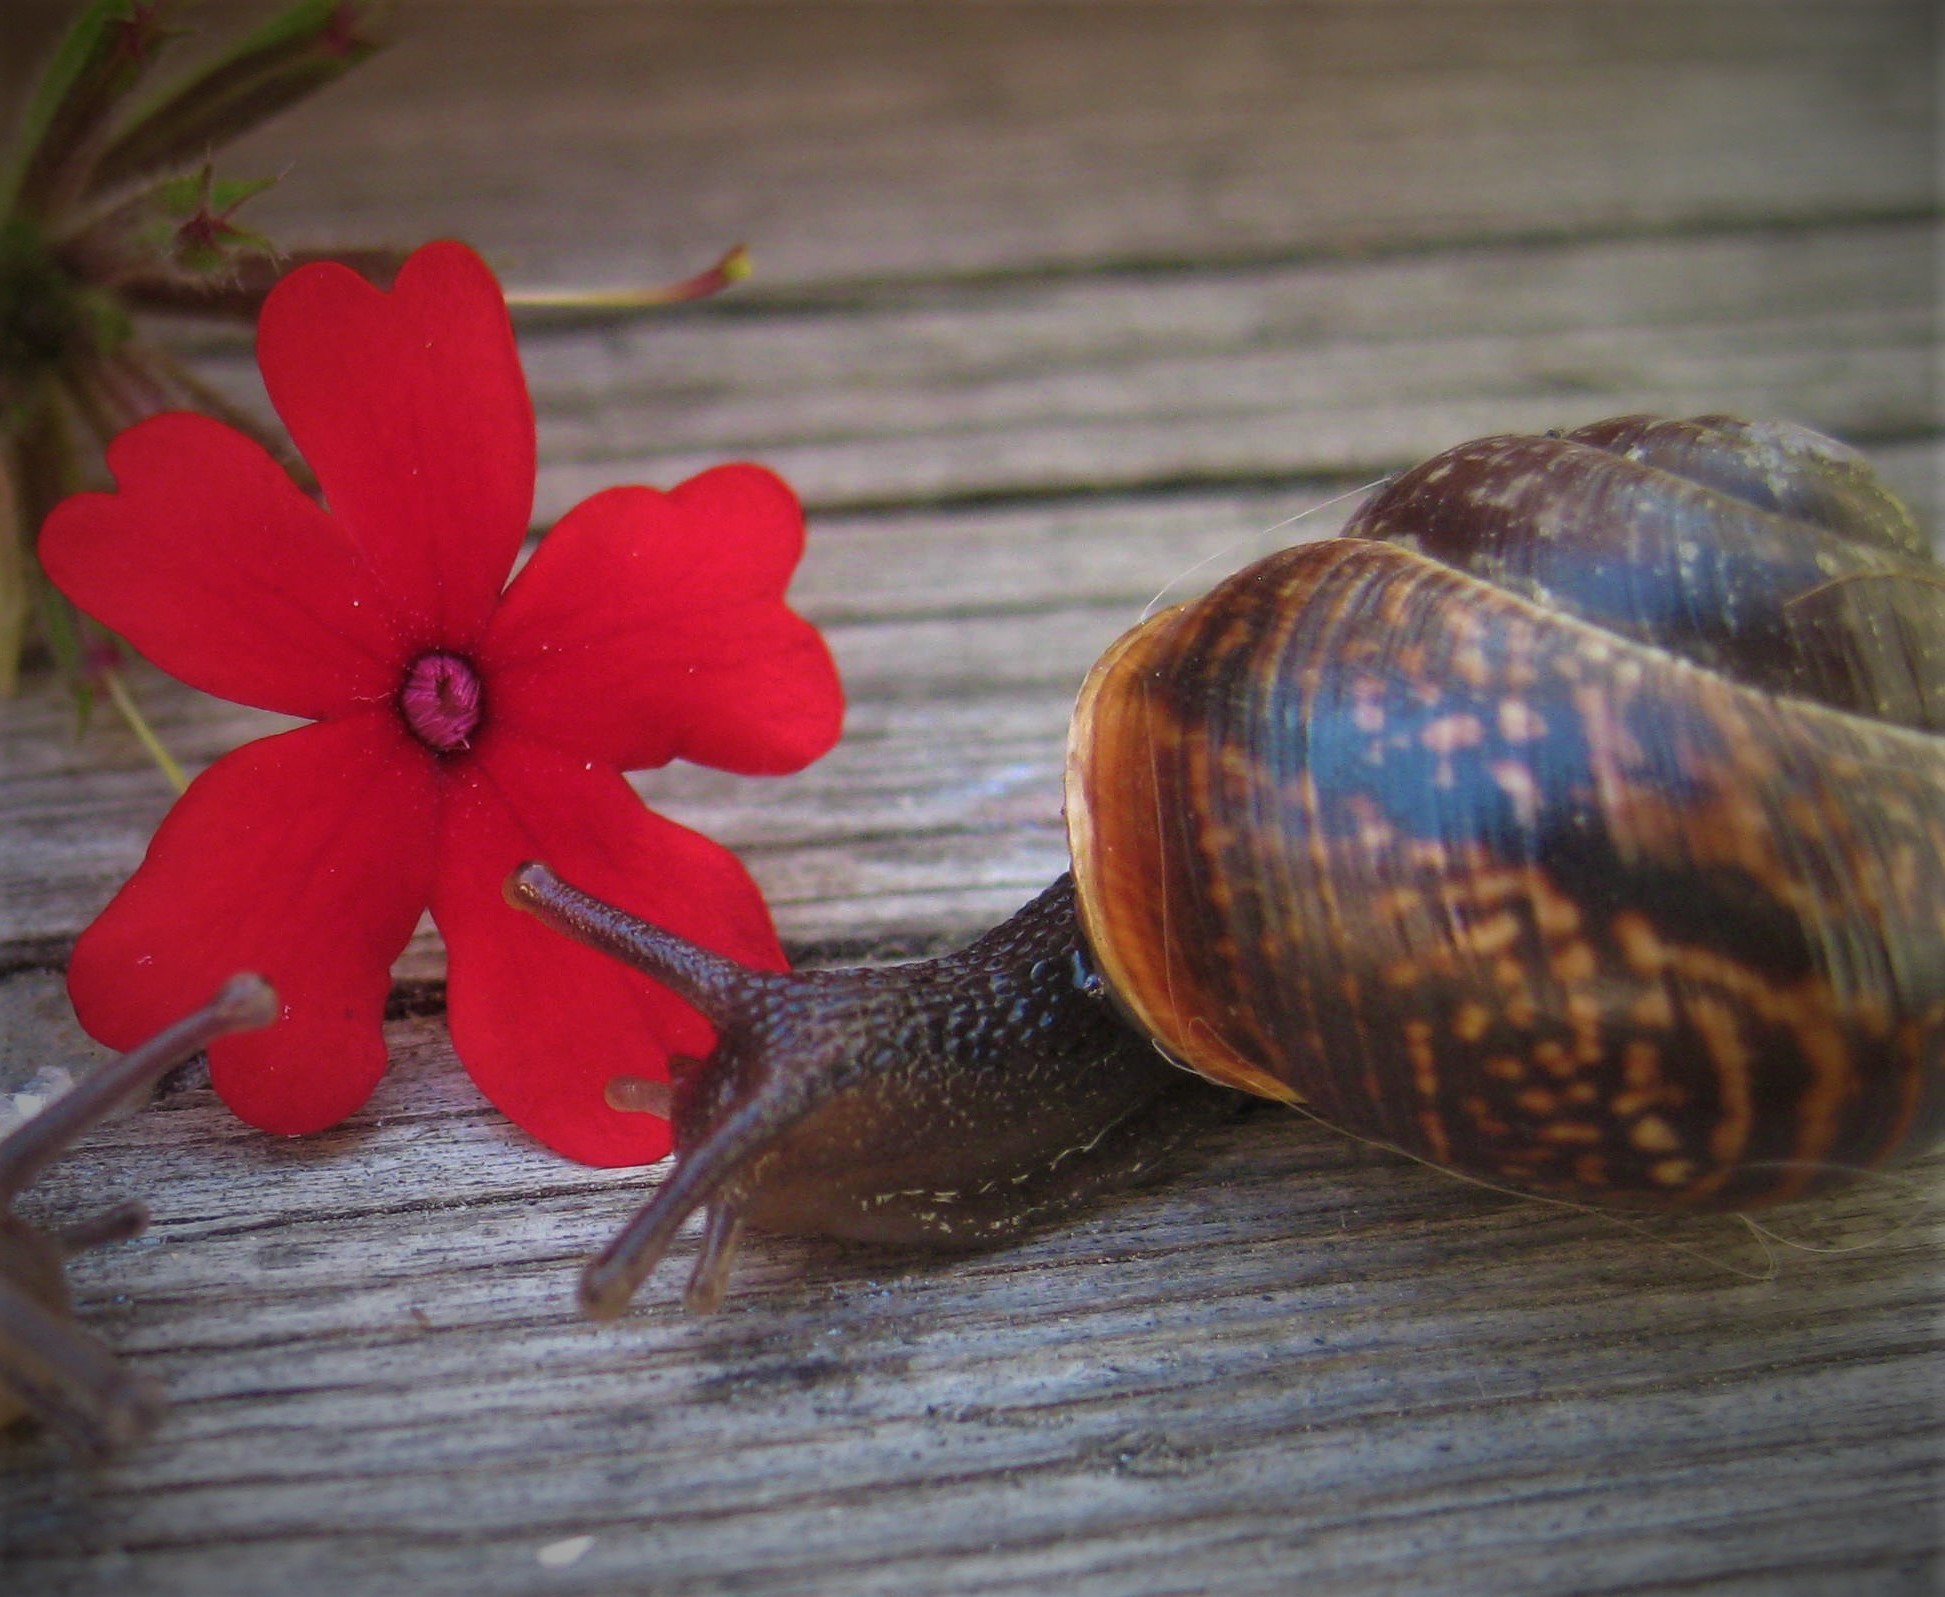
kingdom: Animalia
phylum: Mollusca
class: Gastropoda
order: Stylommatophora
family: Helicidae
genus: Arianta
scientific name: Arianta arbustorum
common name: Copse snail
